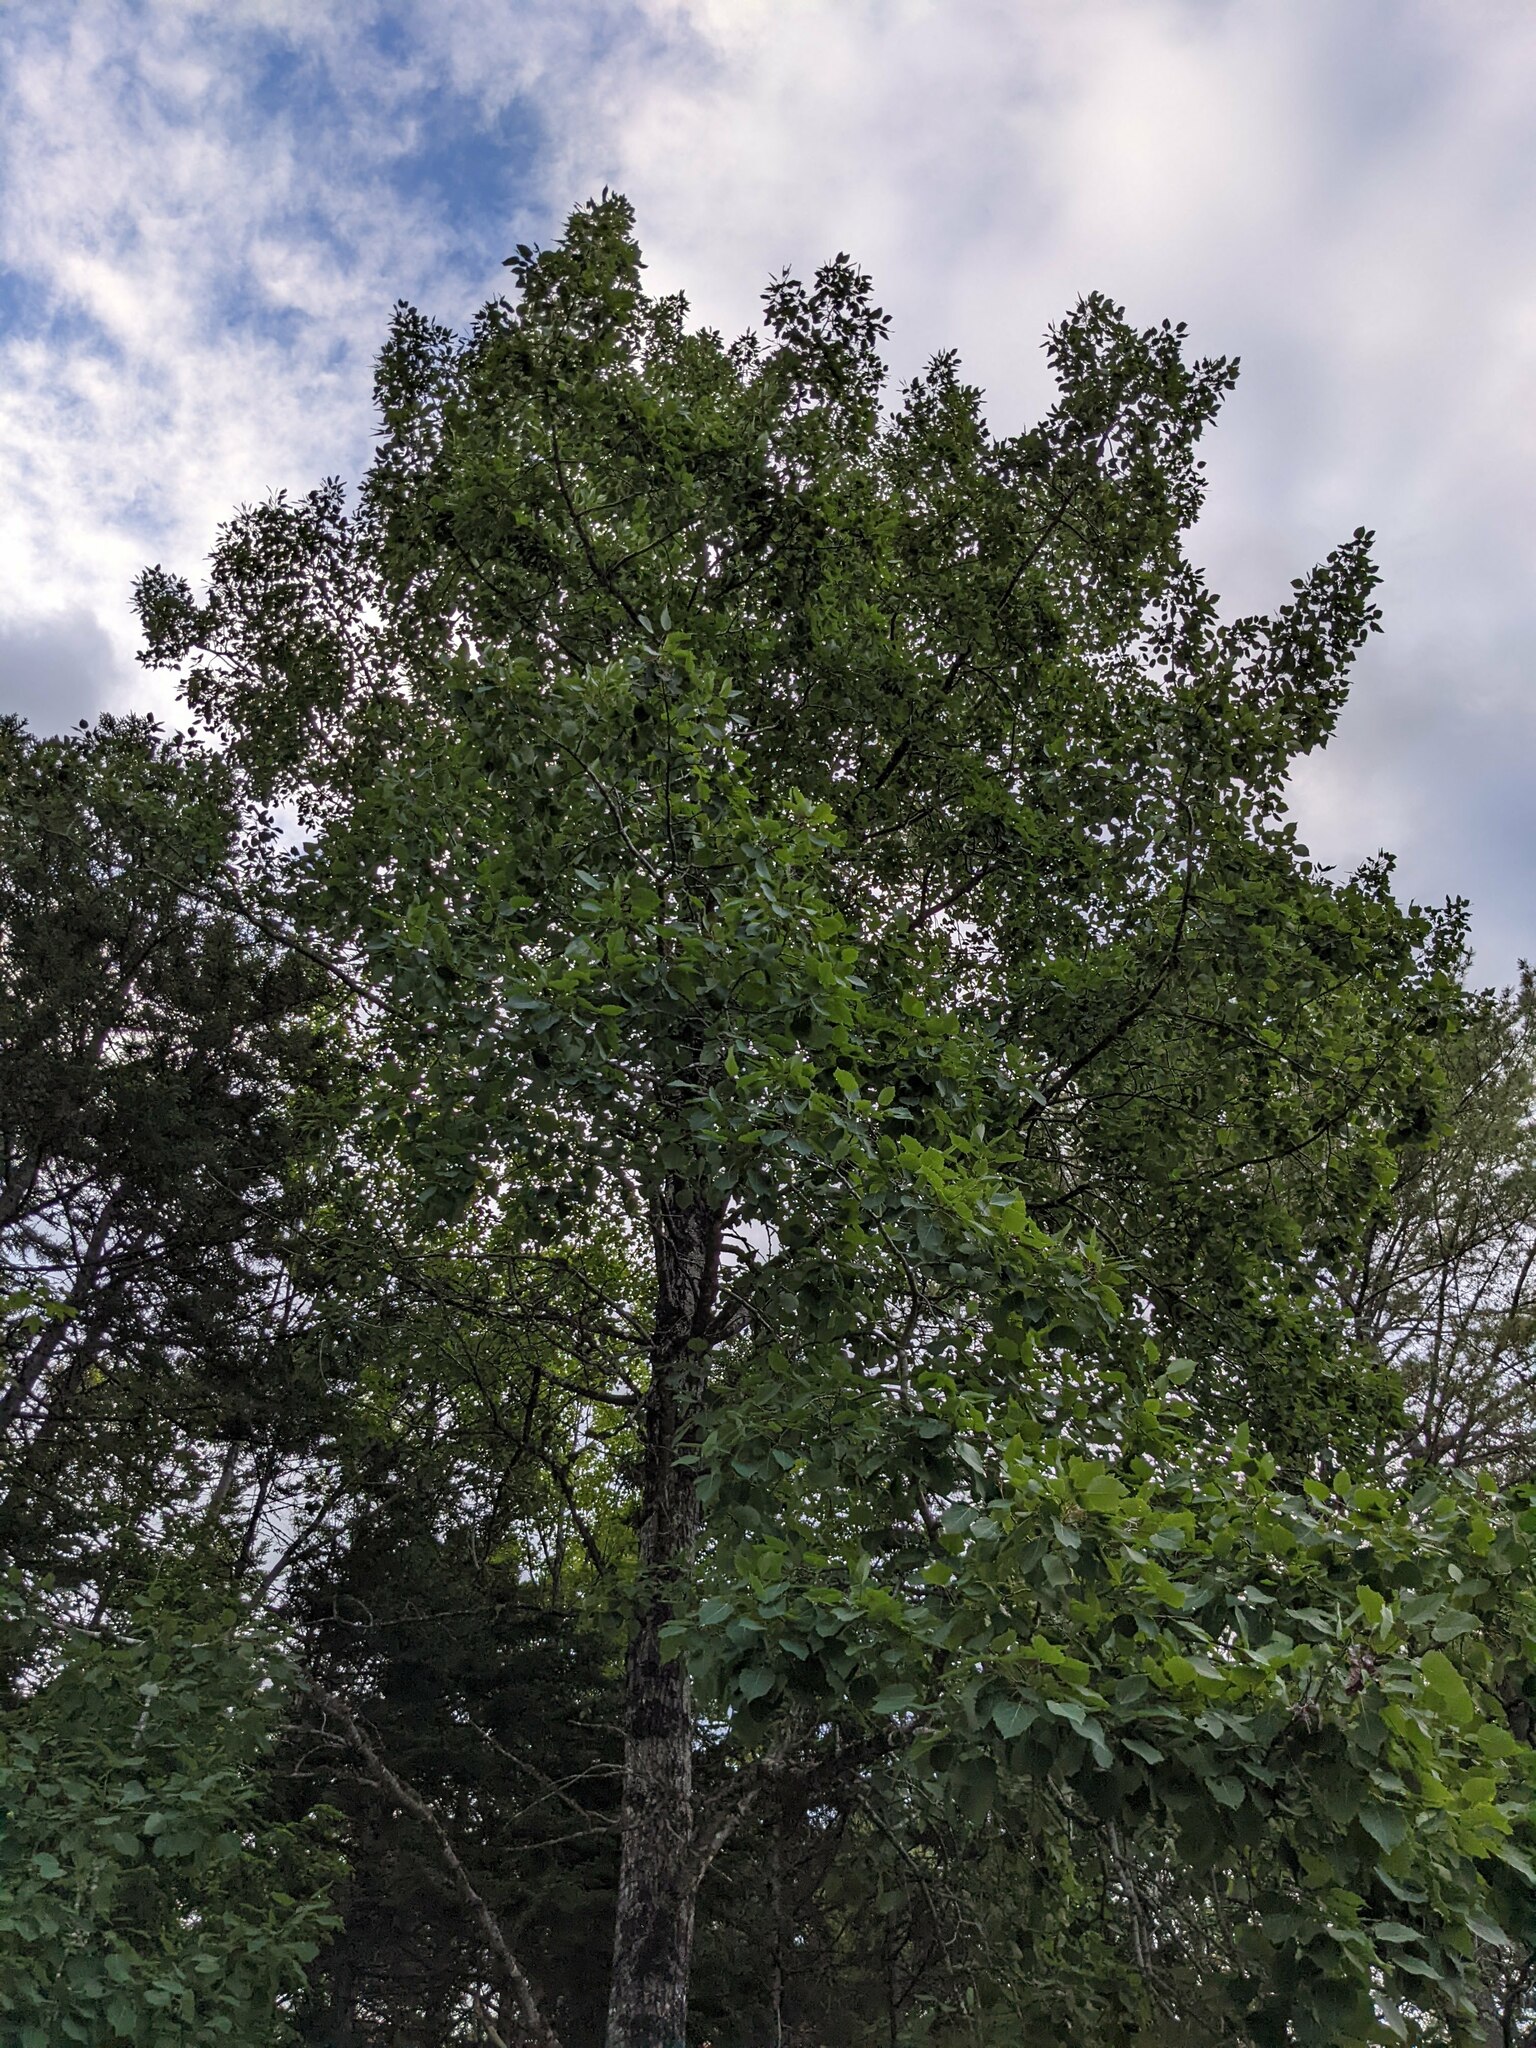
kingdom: Plantae
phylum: Tracheophyta
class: Magnoliopsida
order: Malpighiales
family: Salicaceae
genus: Populus
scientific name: Populus grandidentata
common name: Bigtooth aspen
